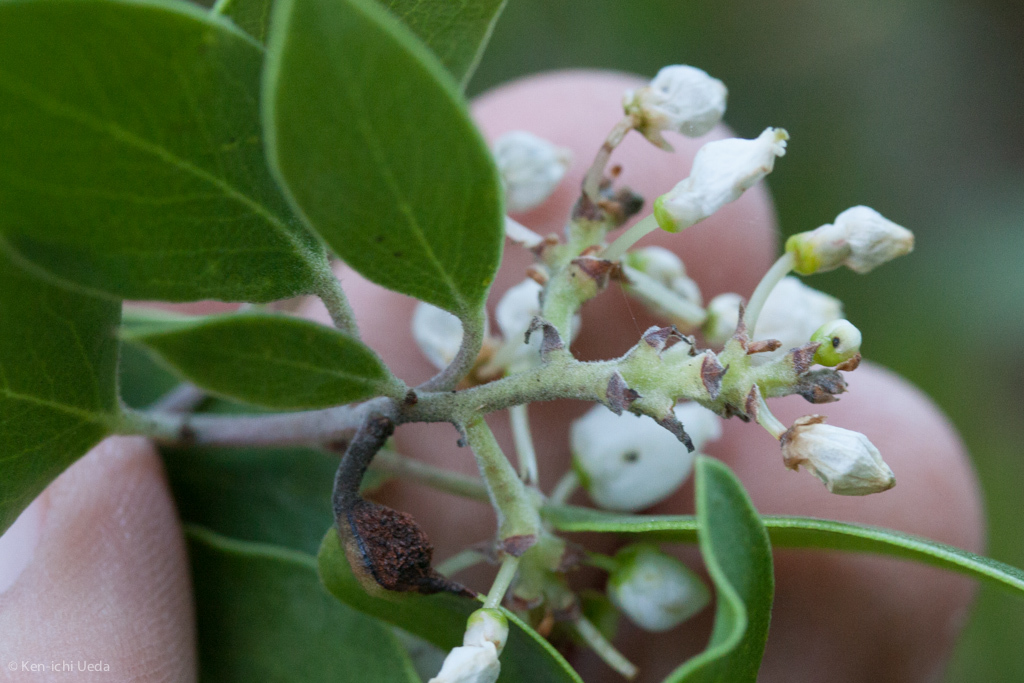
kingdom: Plantae
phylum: Tracheophyta
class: Magnoliopsida
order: Ericales
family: Ericaceae
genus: Arctostaphylos
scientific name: Arctostaphylos manzanita
